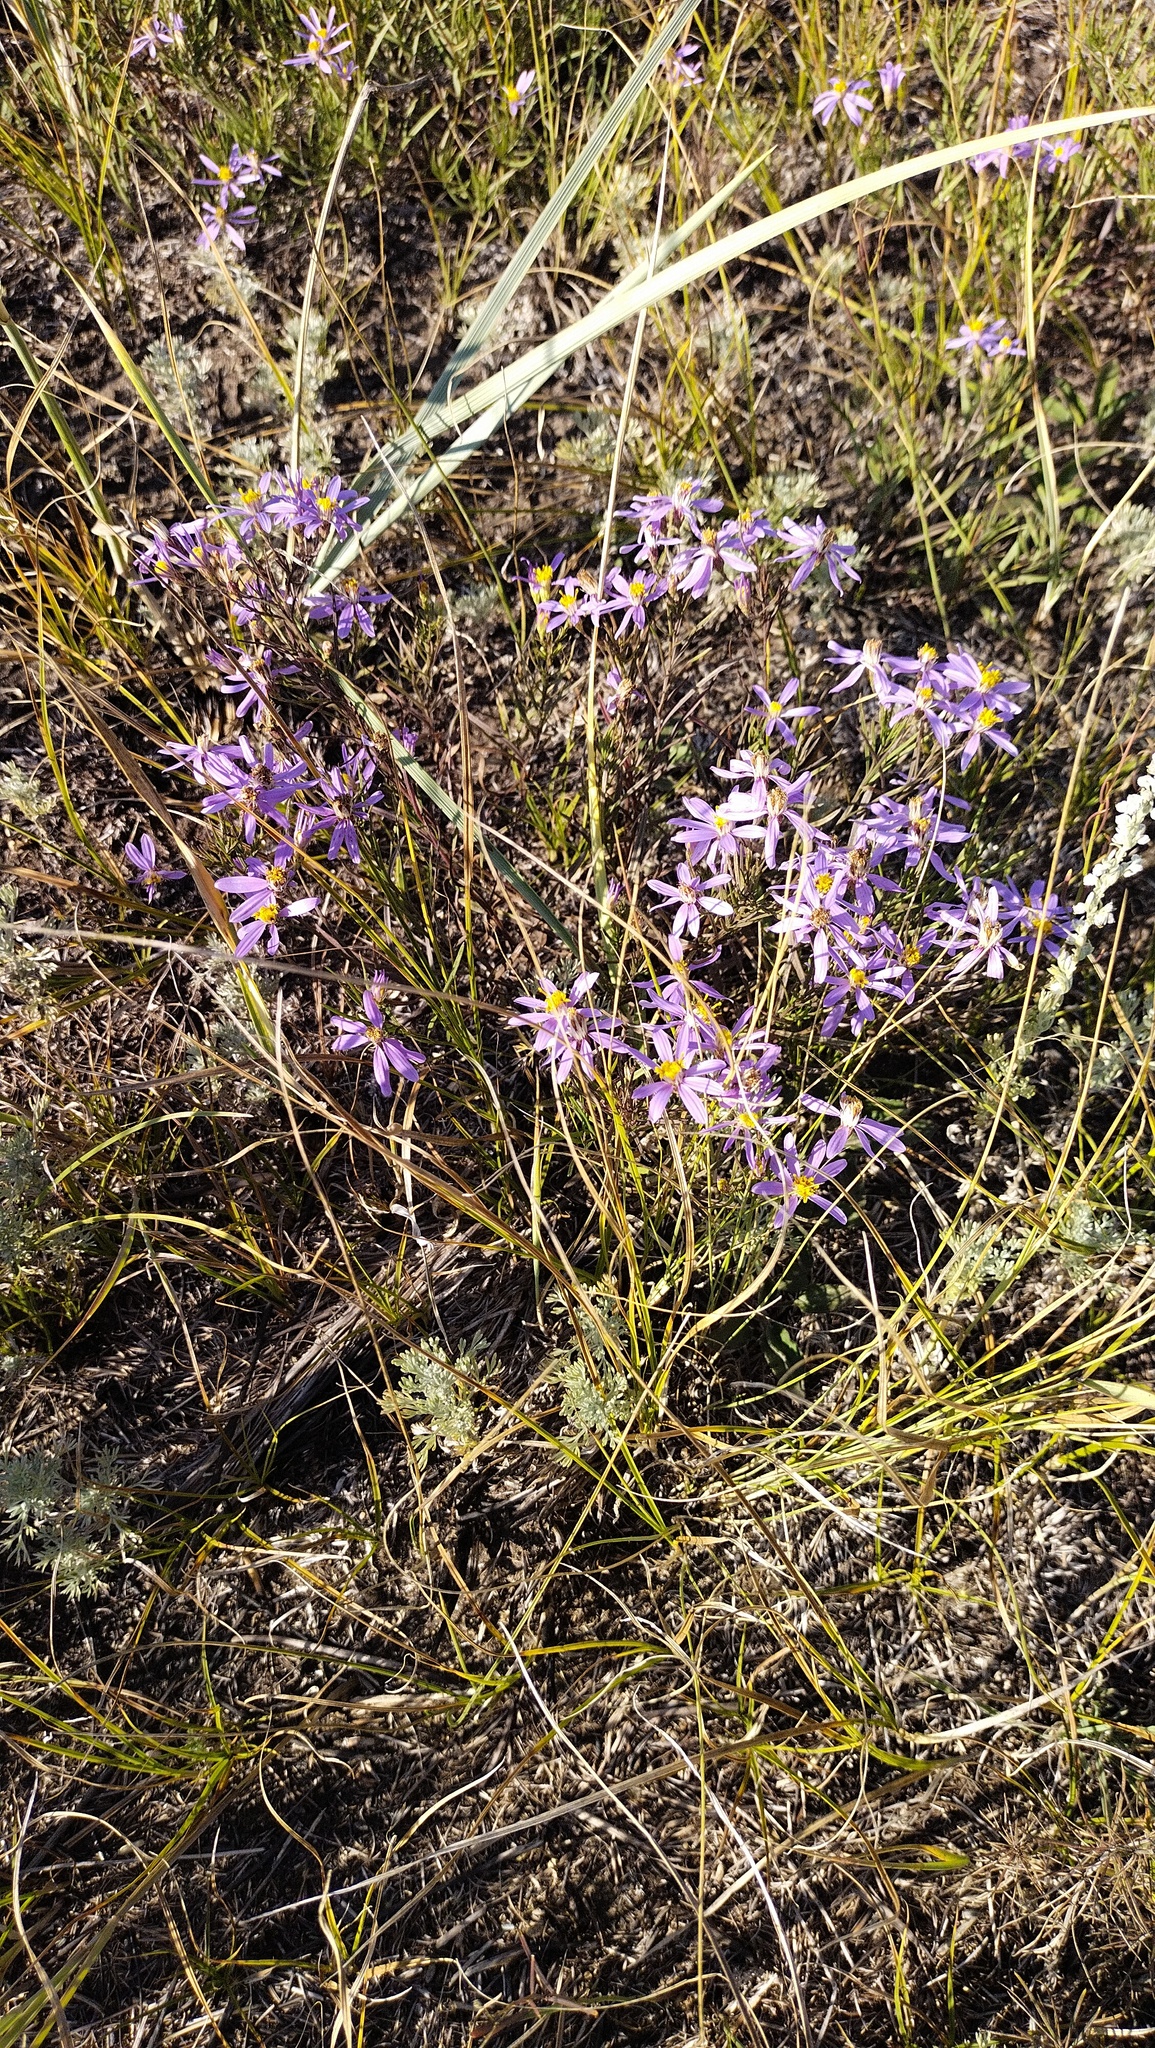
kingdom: Plantae
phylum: Tracheophyta
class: Magnoliopsida
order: Asterales
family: Asteraceae
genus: Galatella
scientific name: Galatella angustissima
